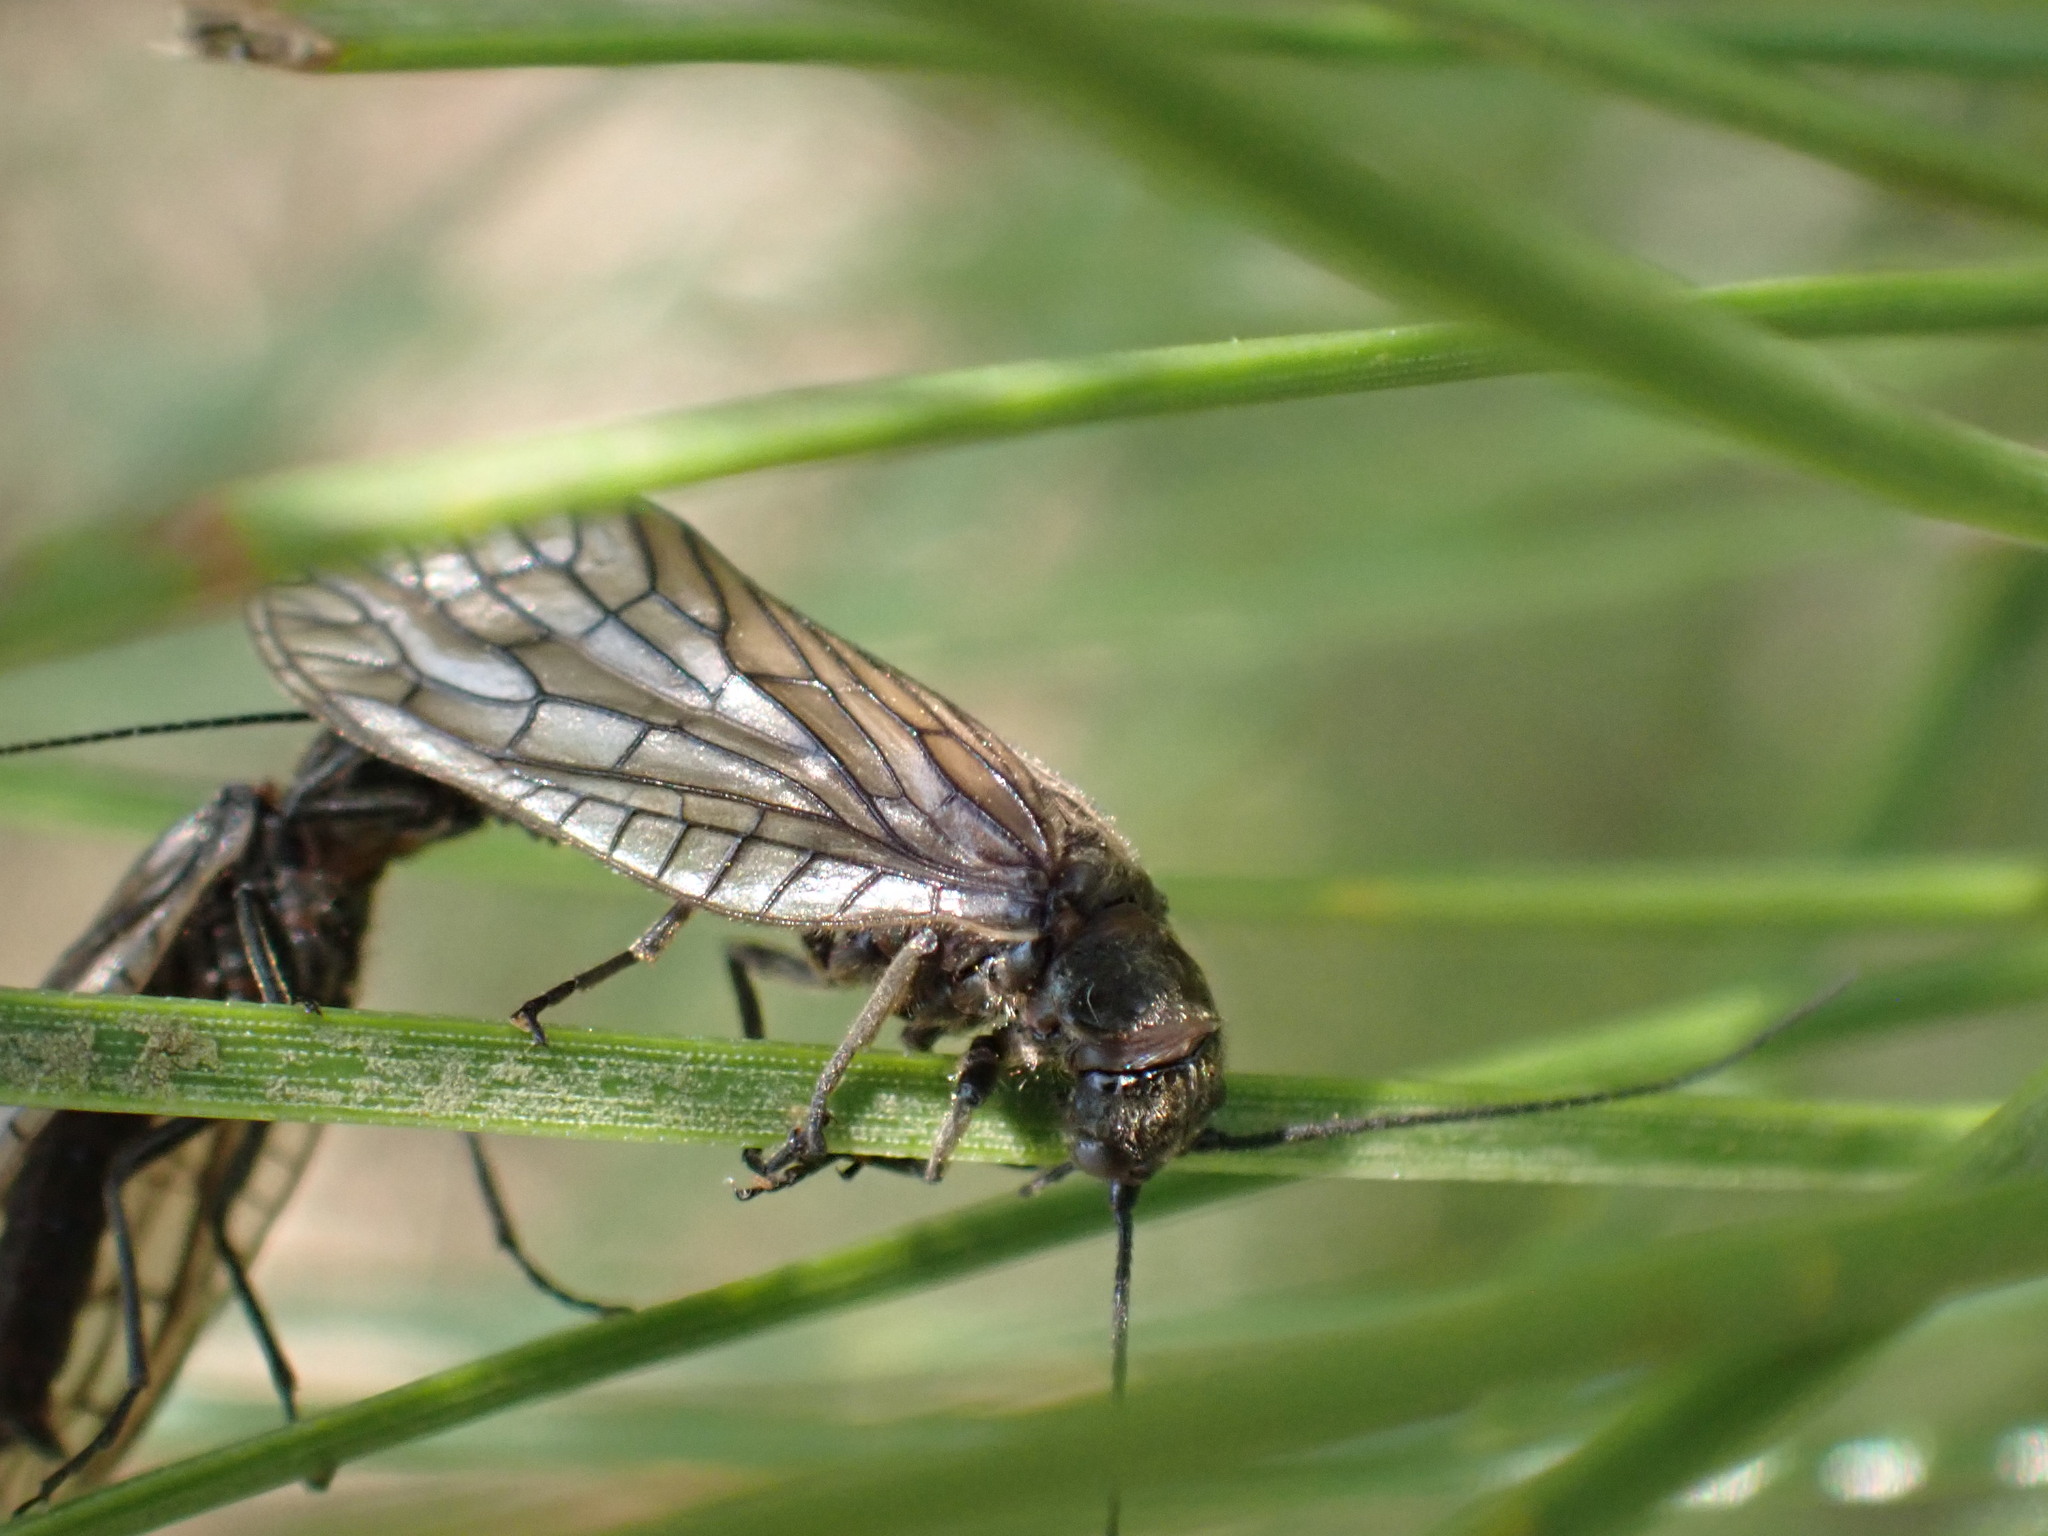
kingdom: Animalia
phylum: Arthropoda
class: Insecta
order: Megaloptera
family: Sialidae
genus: Sialis
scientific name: Sialis
